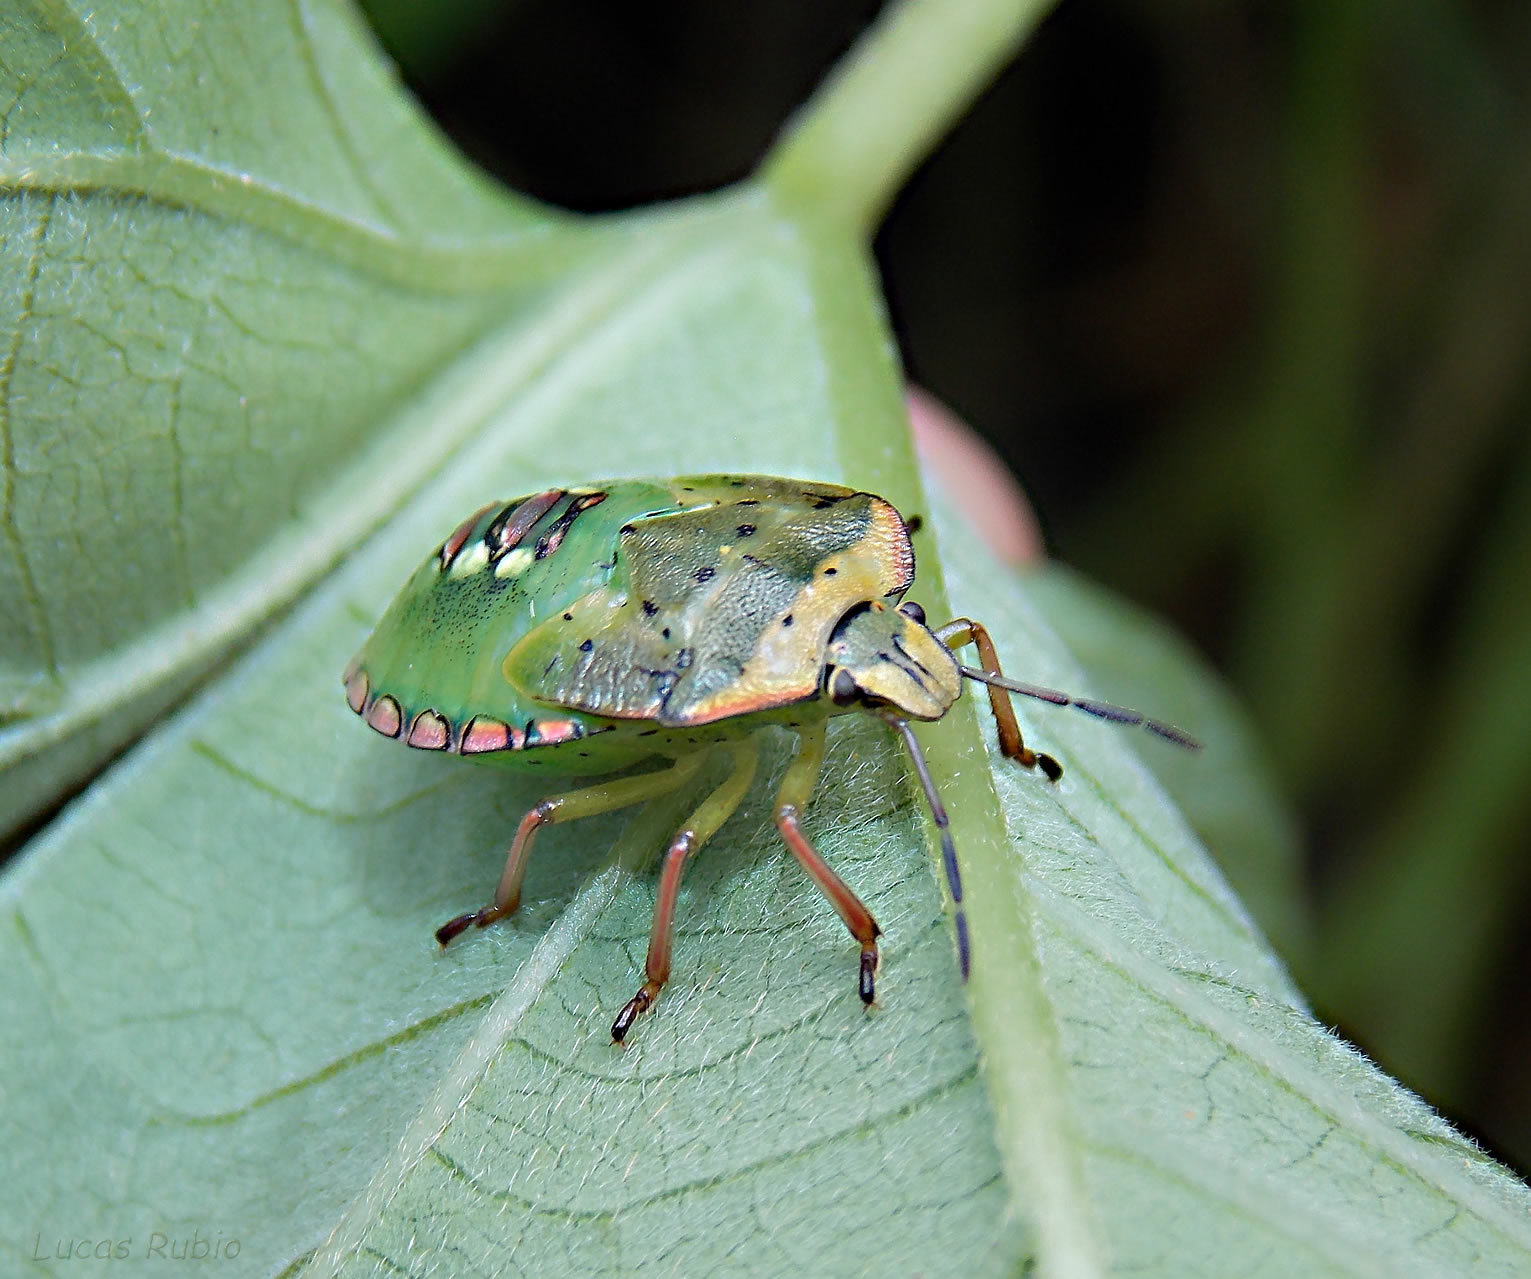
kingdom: Animalia
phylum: Arthropoda
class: Insecta
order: Hemiptera
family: Pentatomidae
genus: Nezara
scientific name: Nezara viridula
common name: Southern green stink bug
